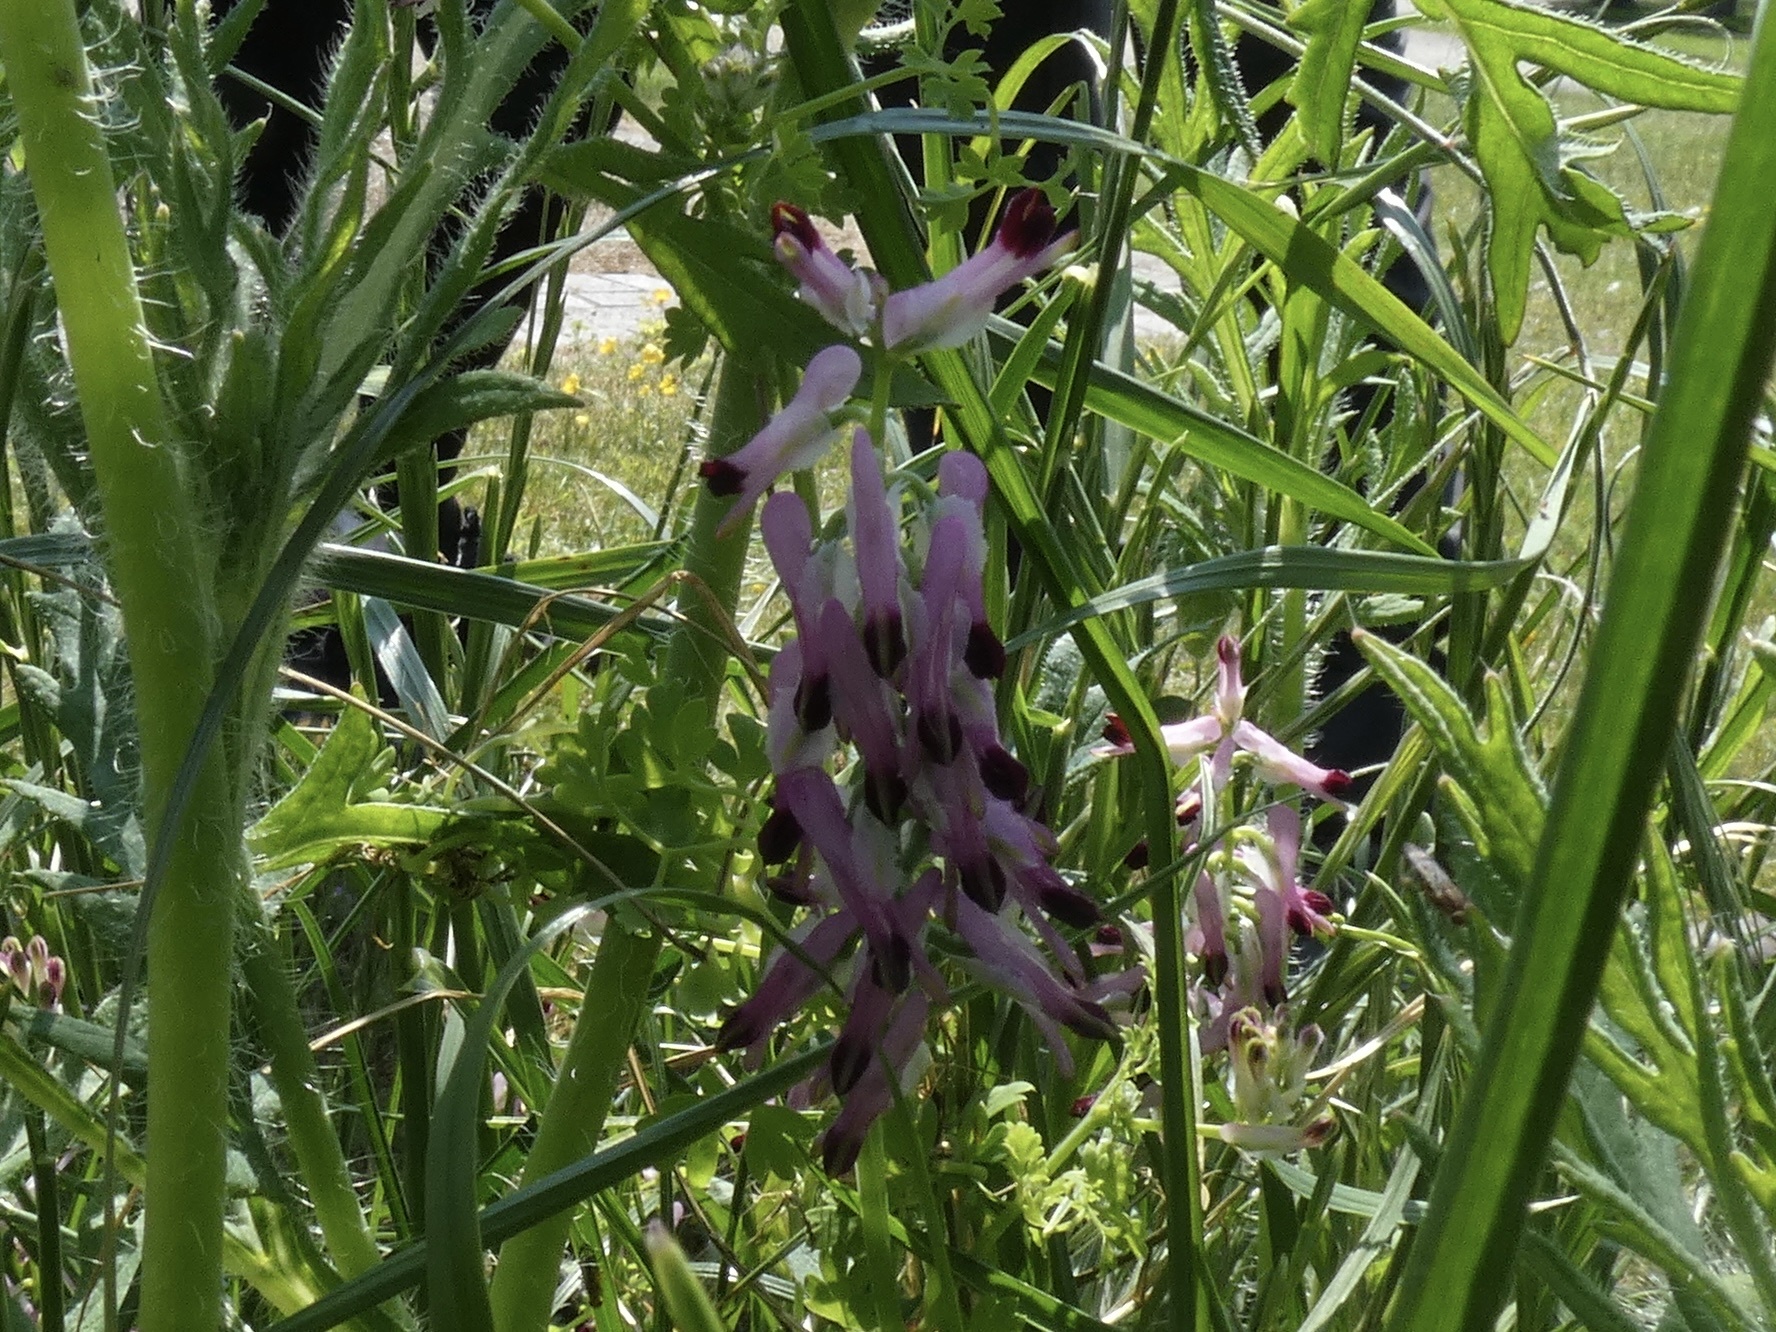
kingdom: Plantae
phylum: Tracheophyta
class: Magnoliopsida
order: Ranunculales
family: Papaveraceae
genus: Fumaria
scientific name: Fumaria purpurea
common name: Purple ramping-fumitory
